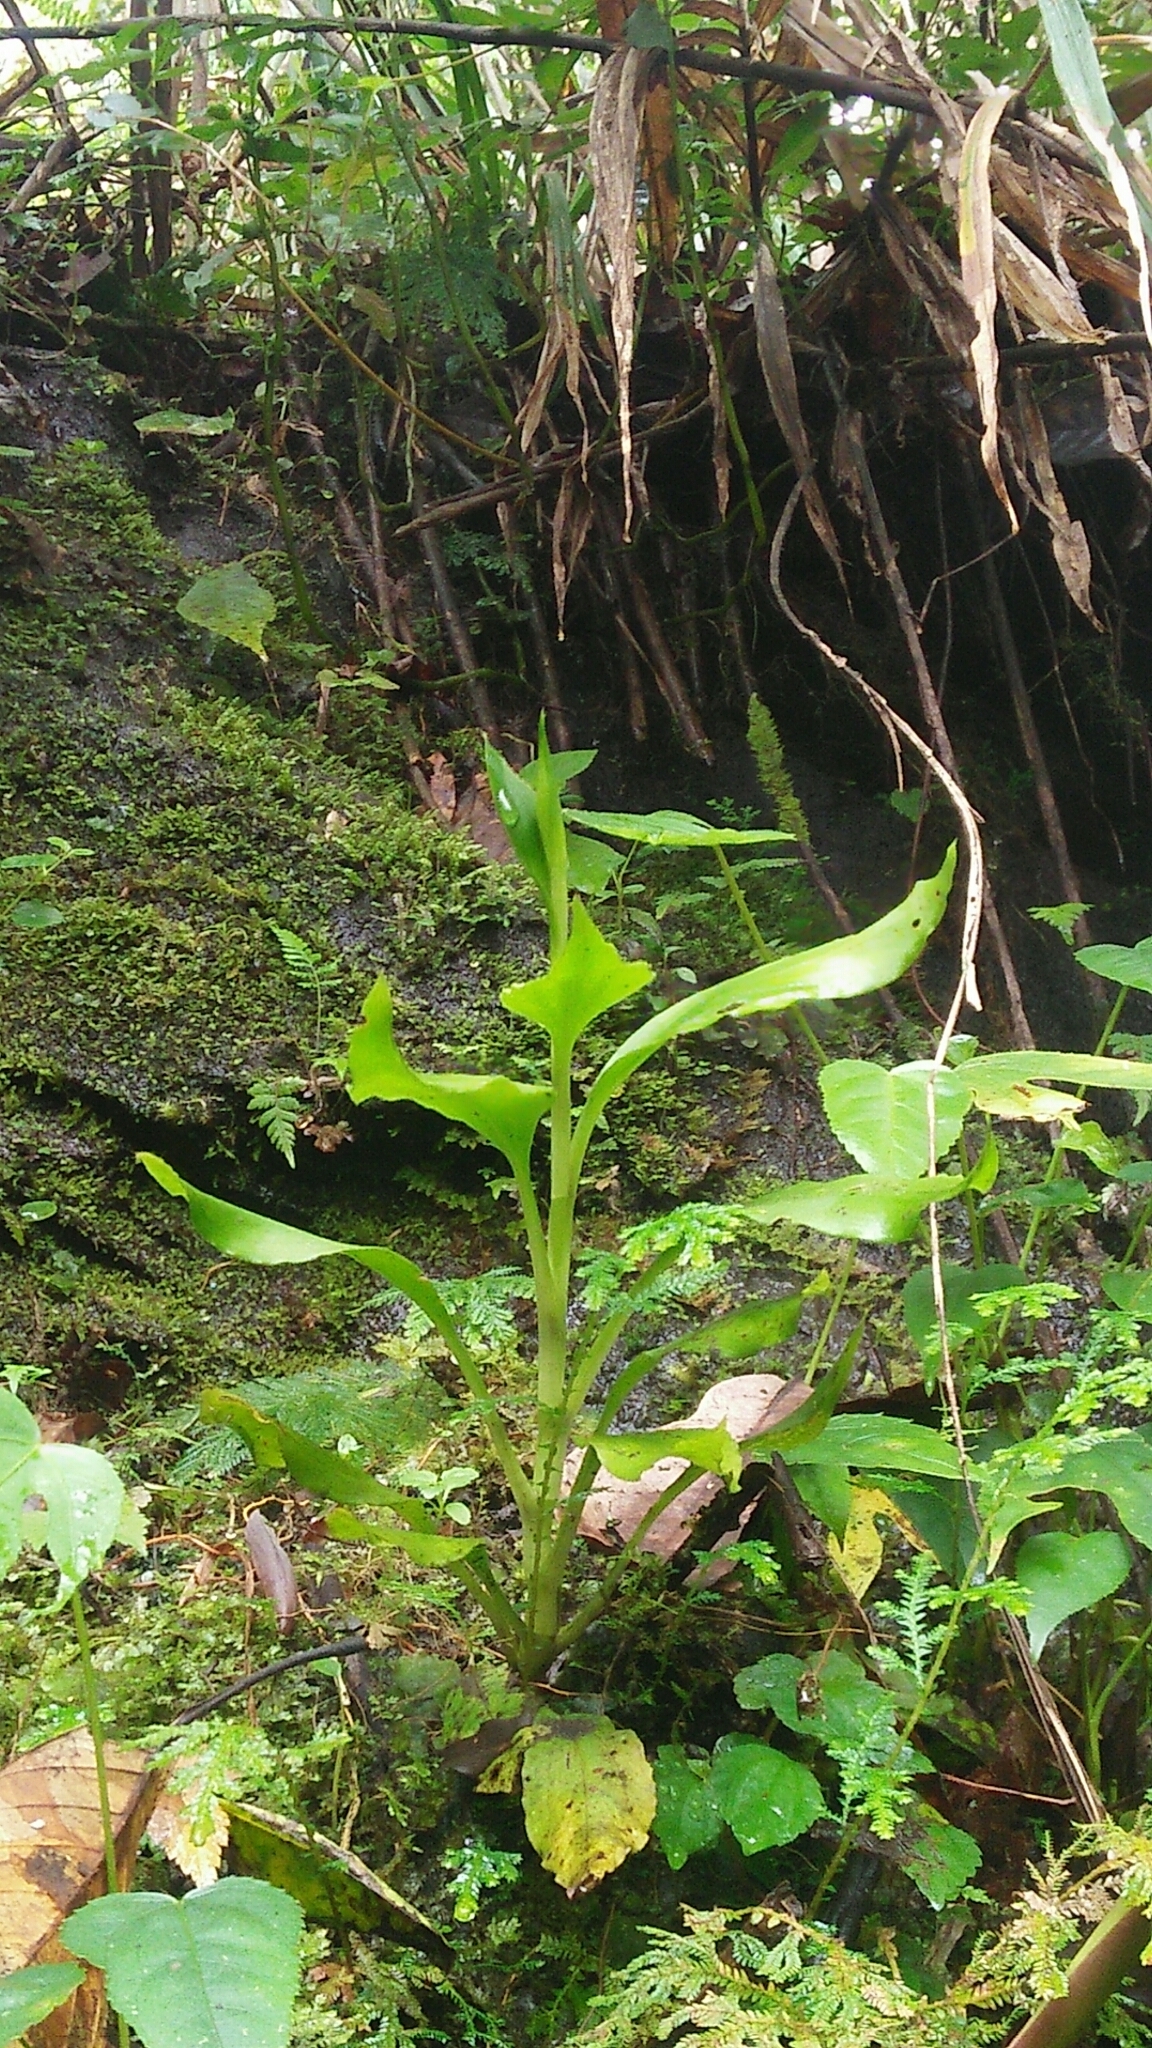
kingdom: Plantae
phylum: Tracheophyta
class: Liliopsida
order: Asparagales
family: Orchidaceae
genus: Goodyera
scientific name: Goodyera procera
